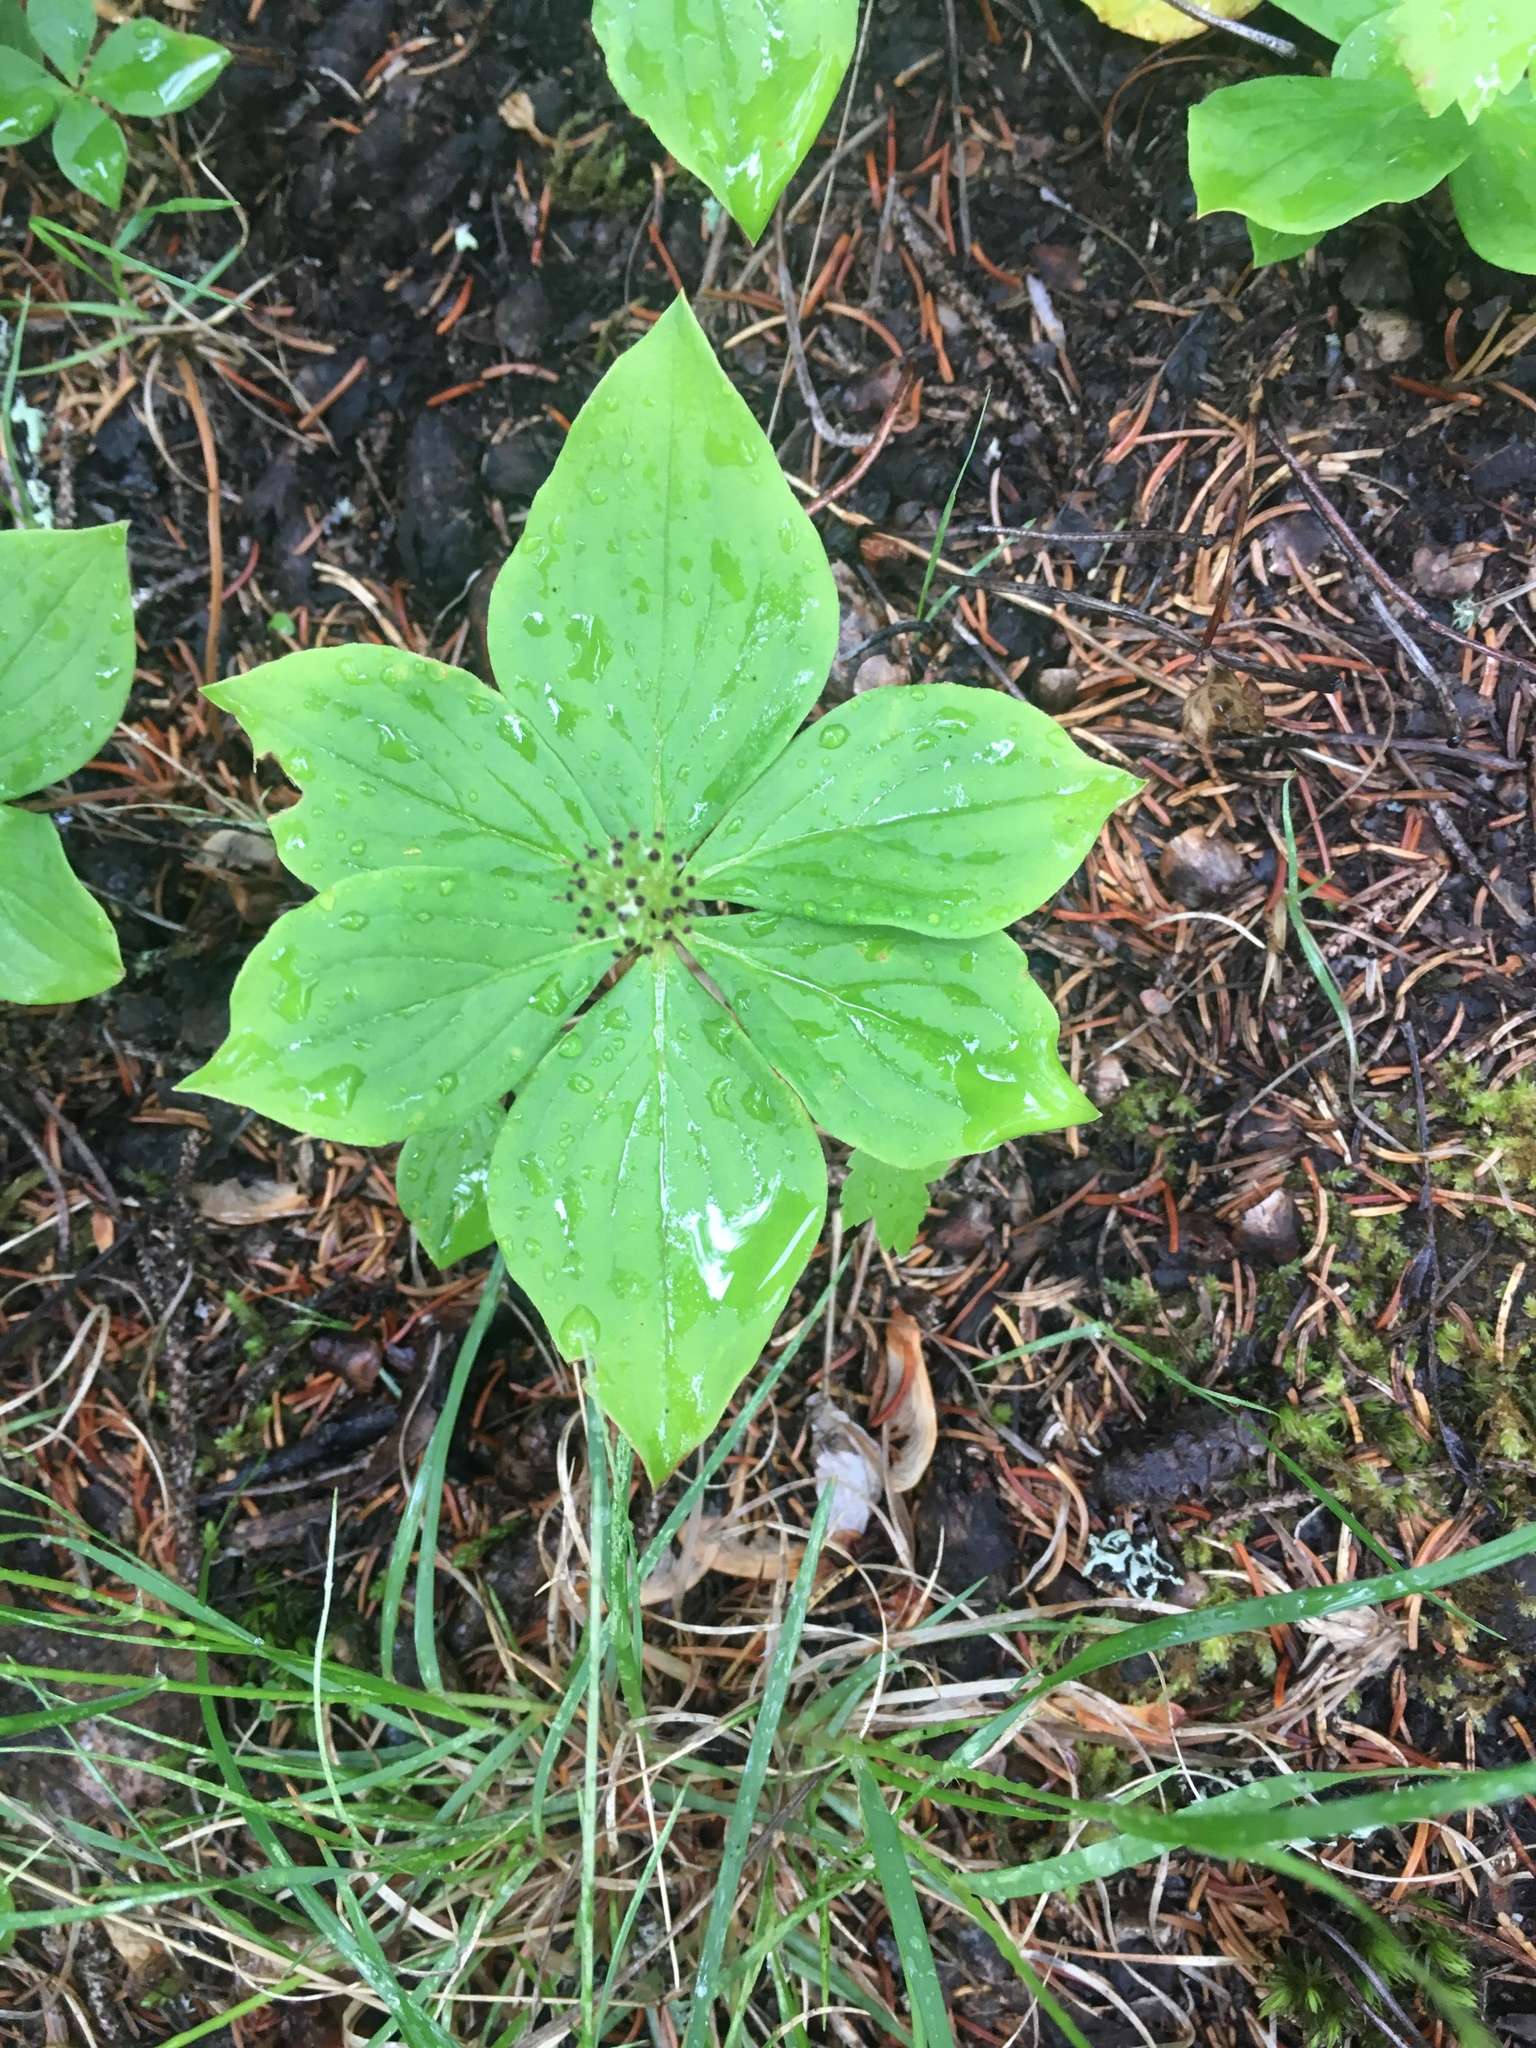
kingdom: Plantae
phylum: Tracheophyta
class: Magnoliopsida
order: Cornales
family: Cornaceae
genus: Cornus
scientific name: Cornus canadensis
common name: Creeping dogwood
